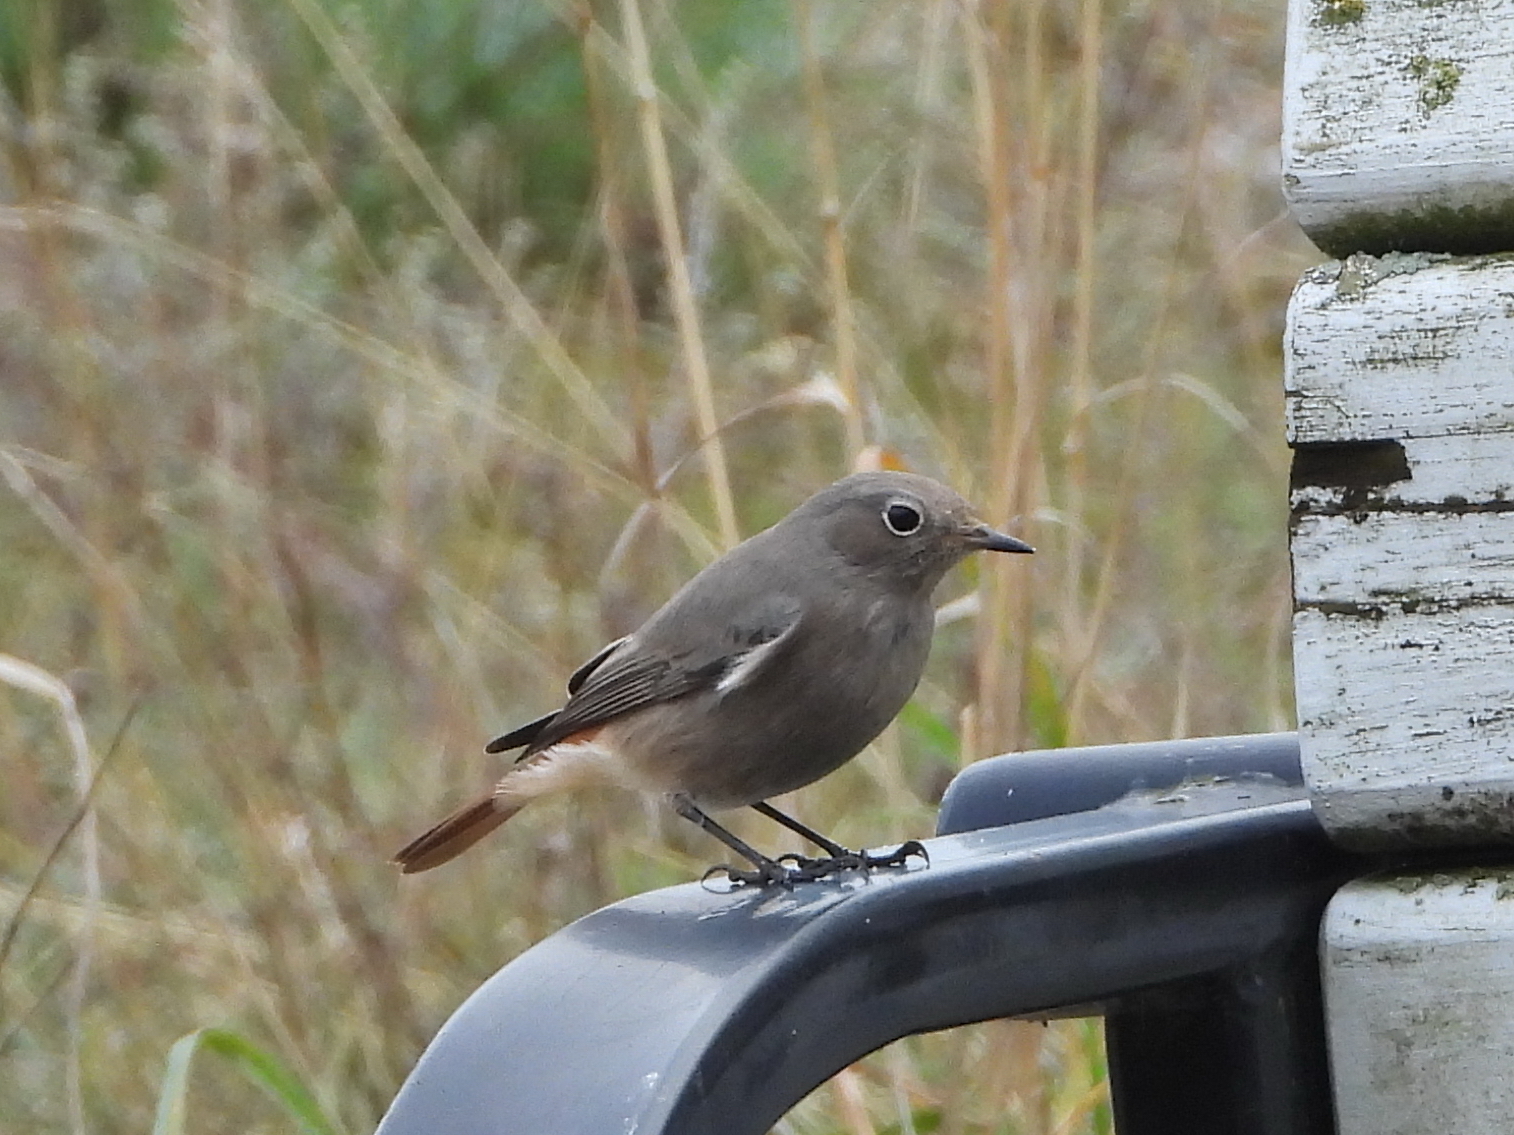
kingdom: Animalia
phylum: Chordata
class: Aves
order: Passeriformes
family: Muscicapidae
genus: Phoenicurus
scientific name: Phoenicurus ochruros
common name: Black redstart
